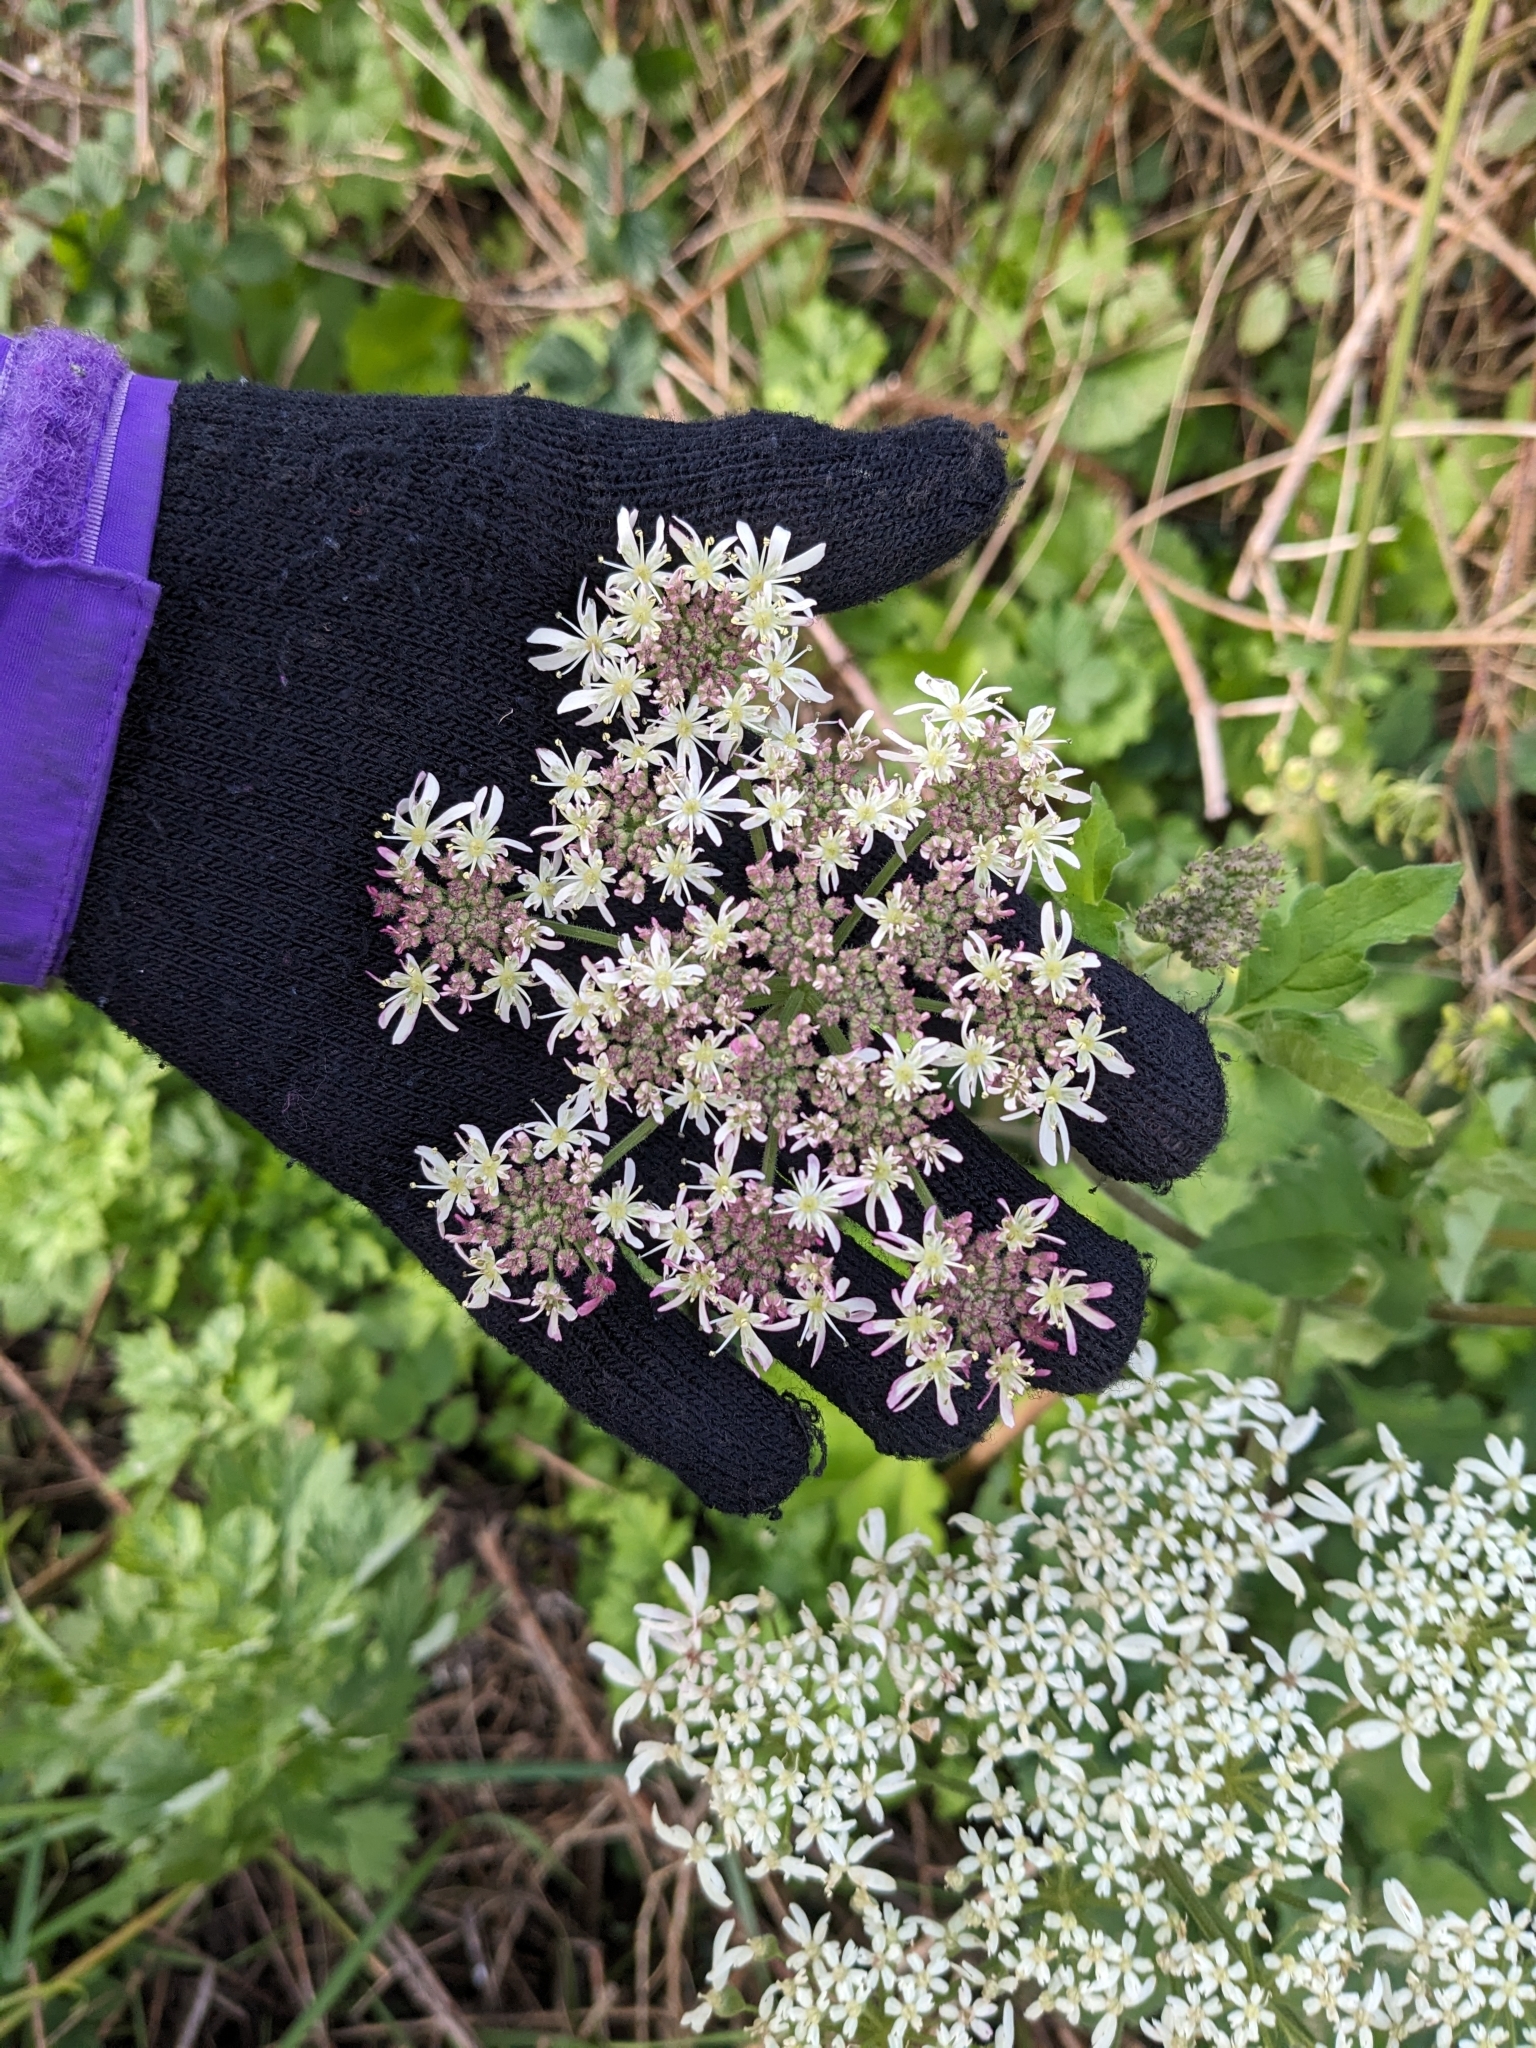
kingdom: Plantae
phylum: Tracheophyta
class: Magnoliopsida
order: Apiales
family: Apiaceae
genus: Heracleum
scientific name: Heracleum sphondylium
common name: Hogweed
